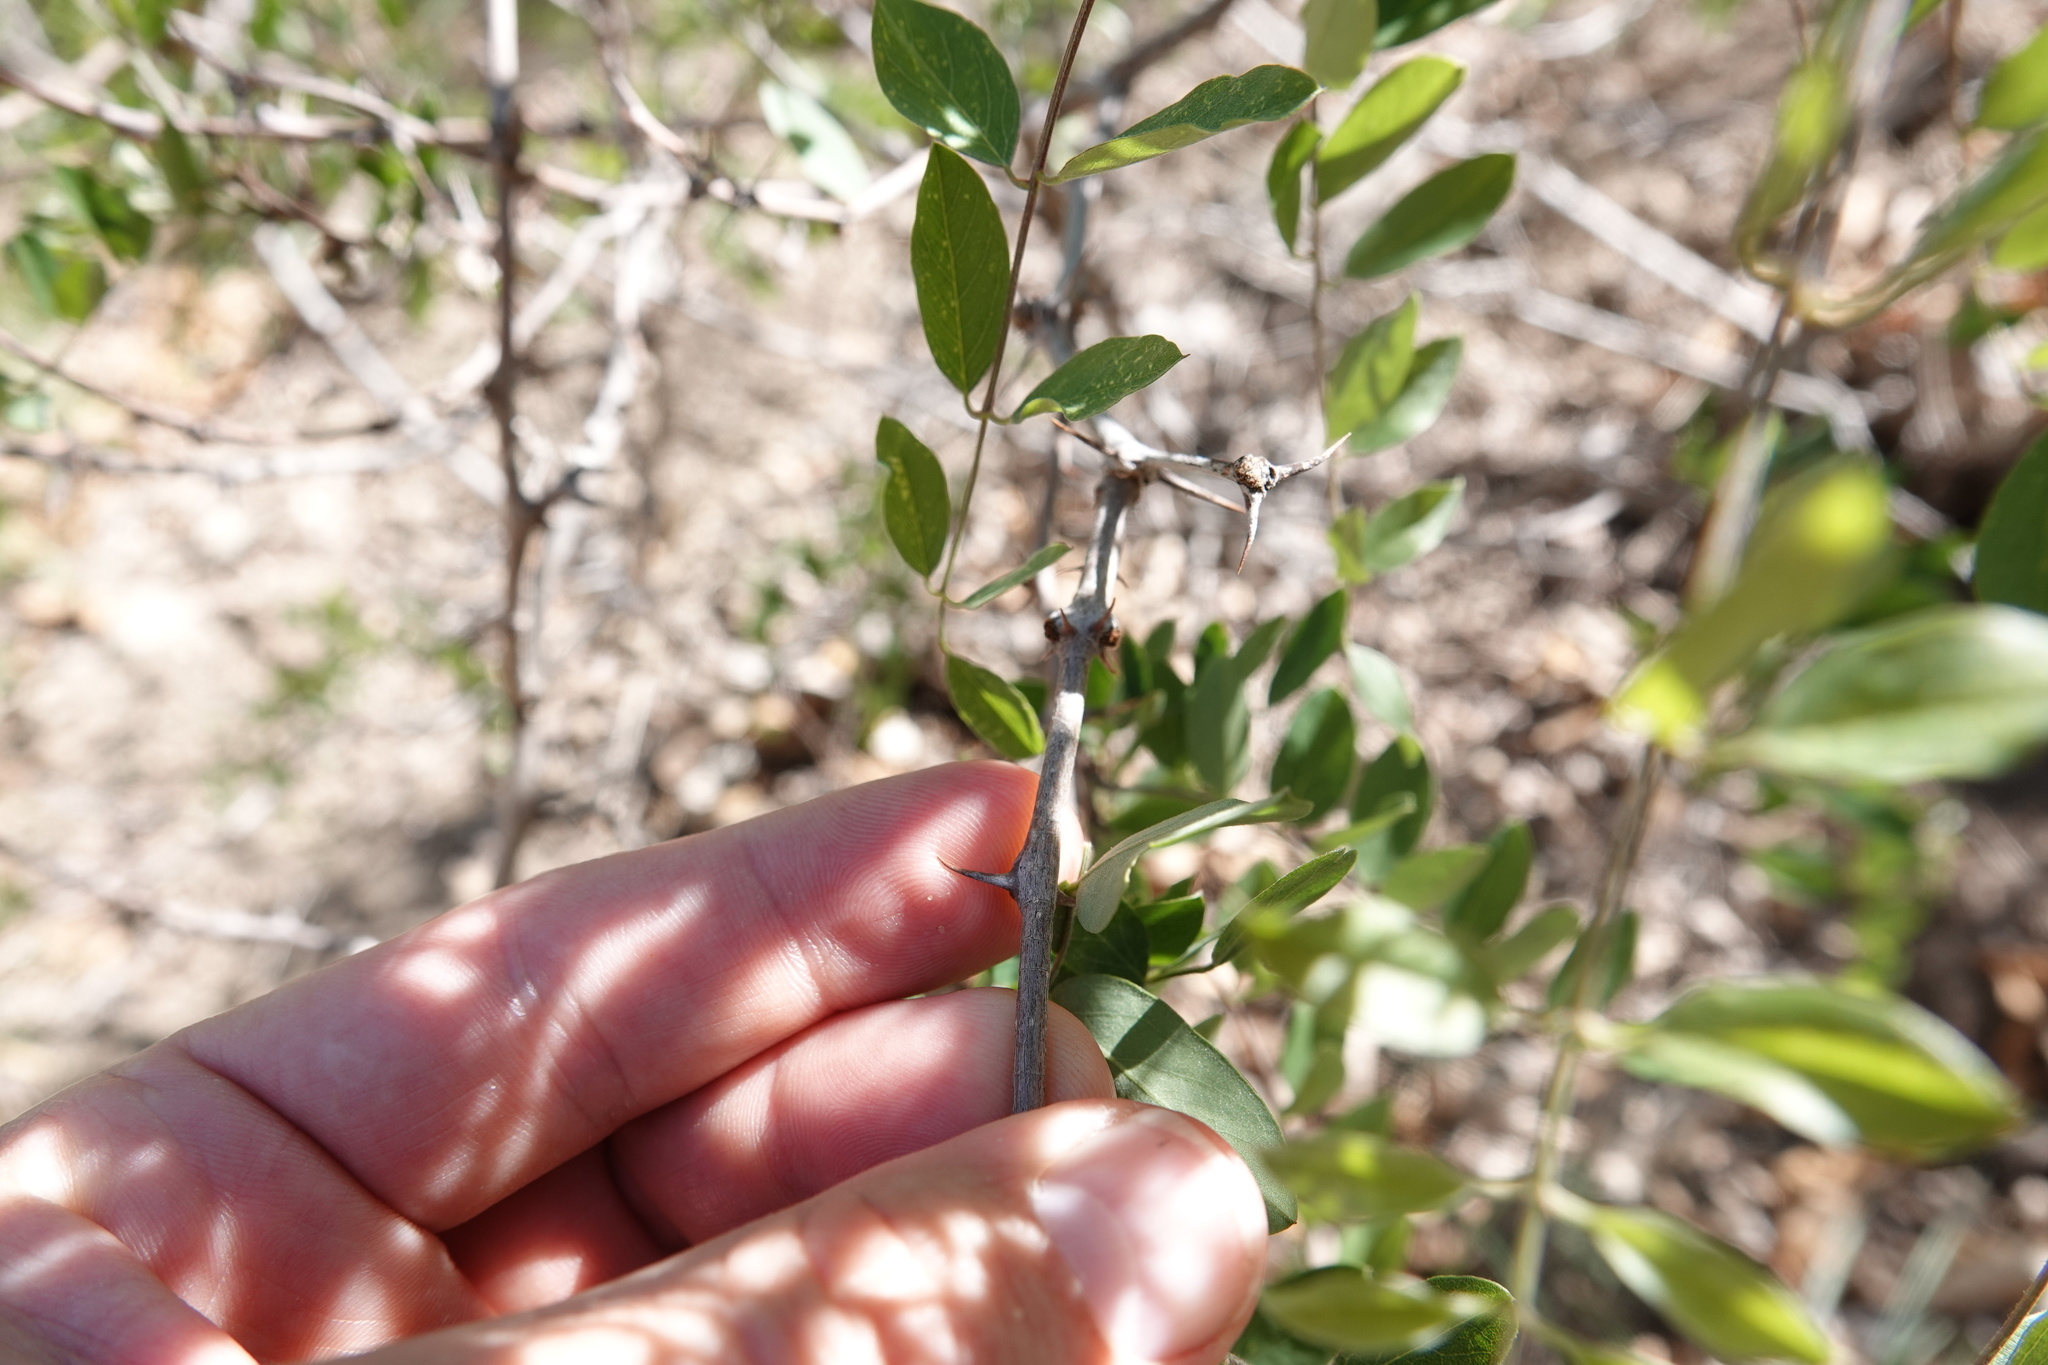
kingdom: Plantae
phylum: Tracheophyta
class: Magnoliopsida
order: Fabales
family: Fabaceae
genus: Robinia
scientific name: Robinia neomexicana
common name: New mexico locust
